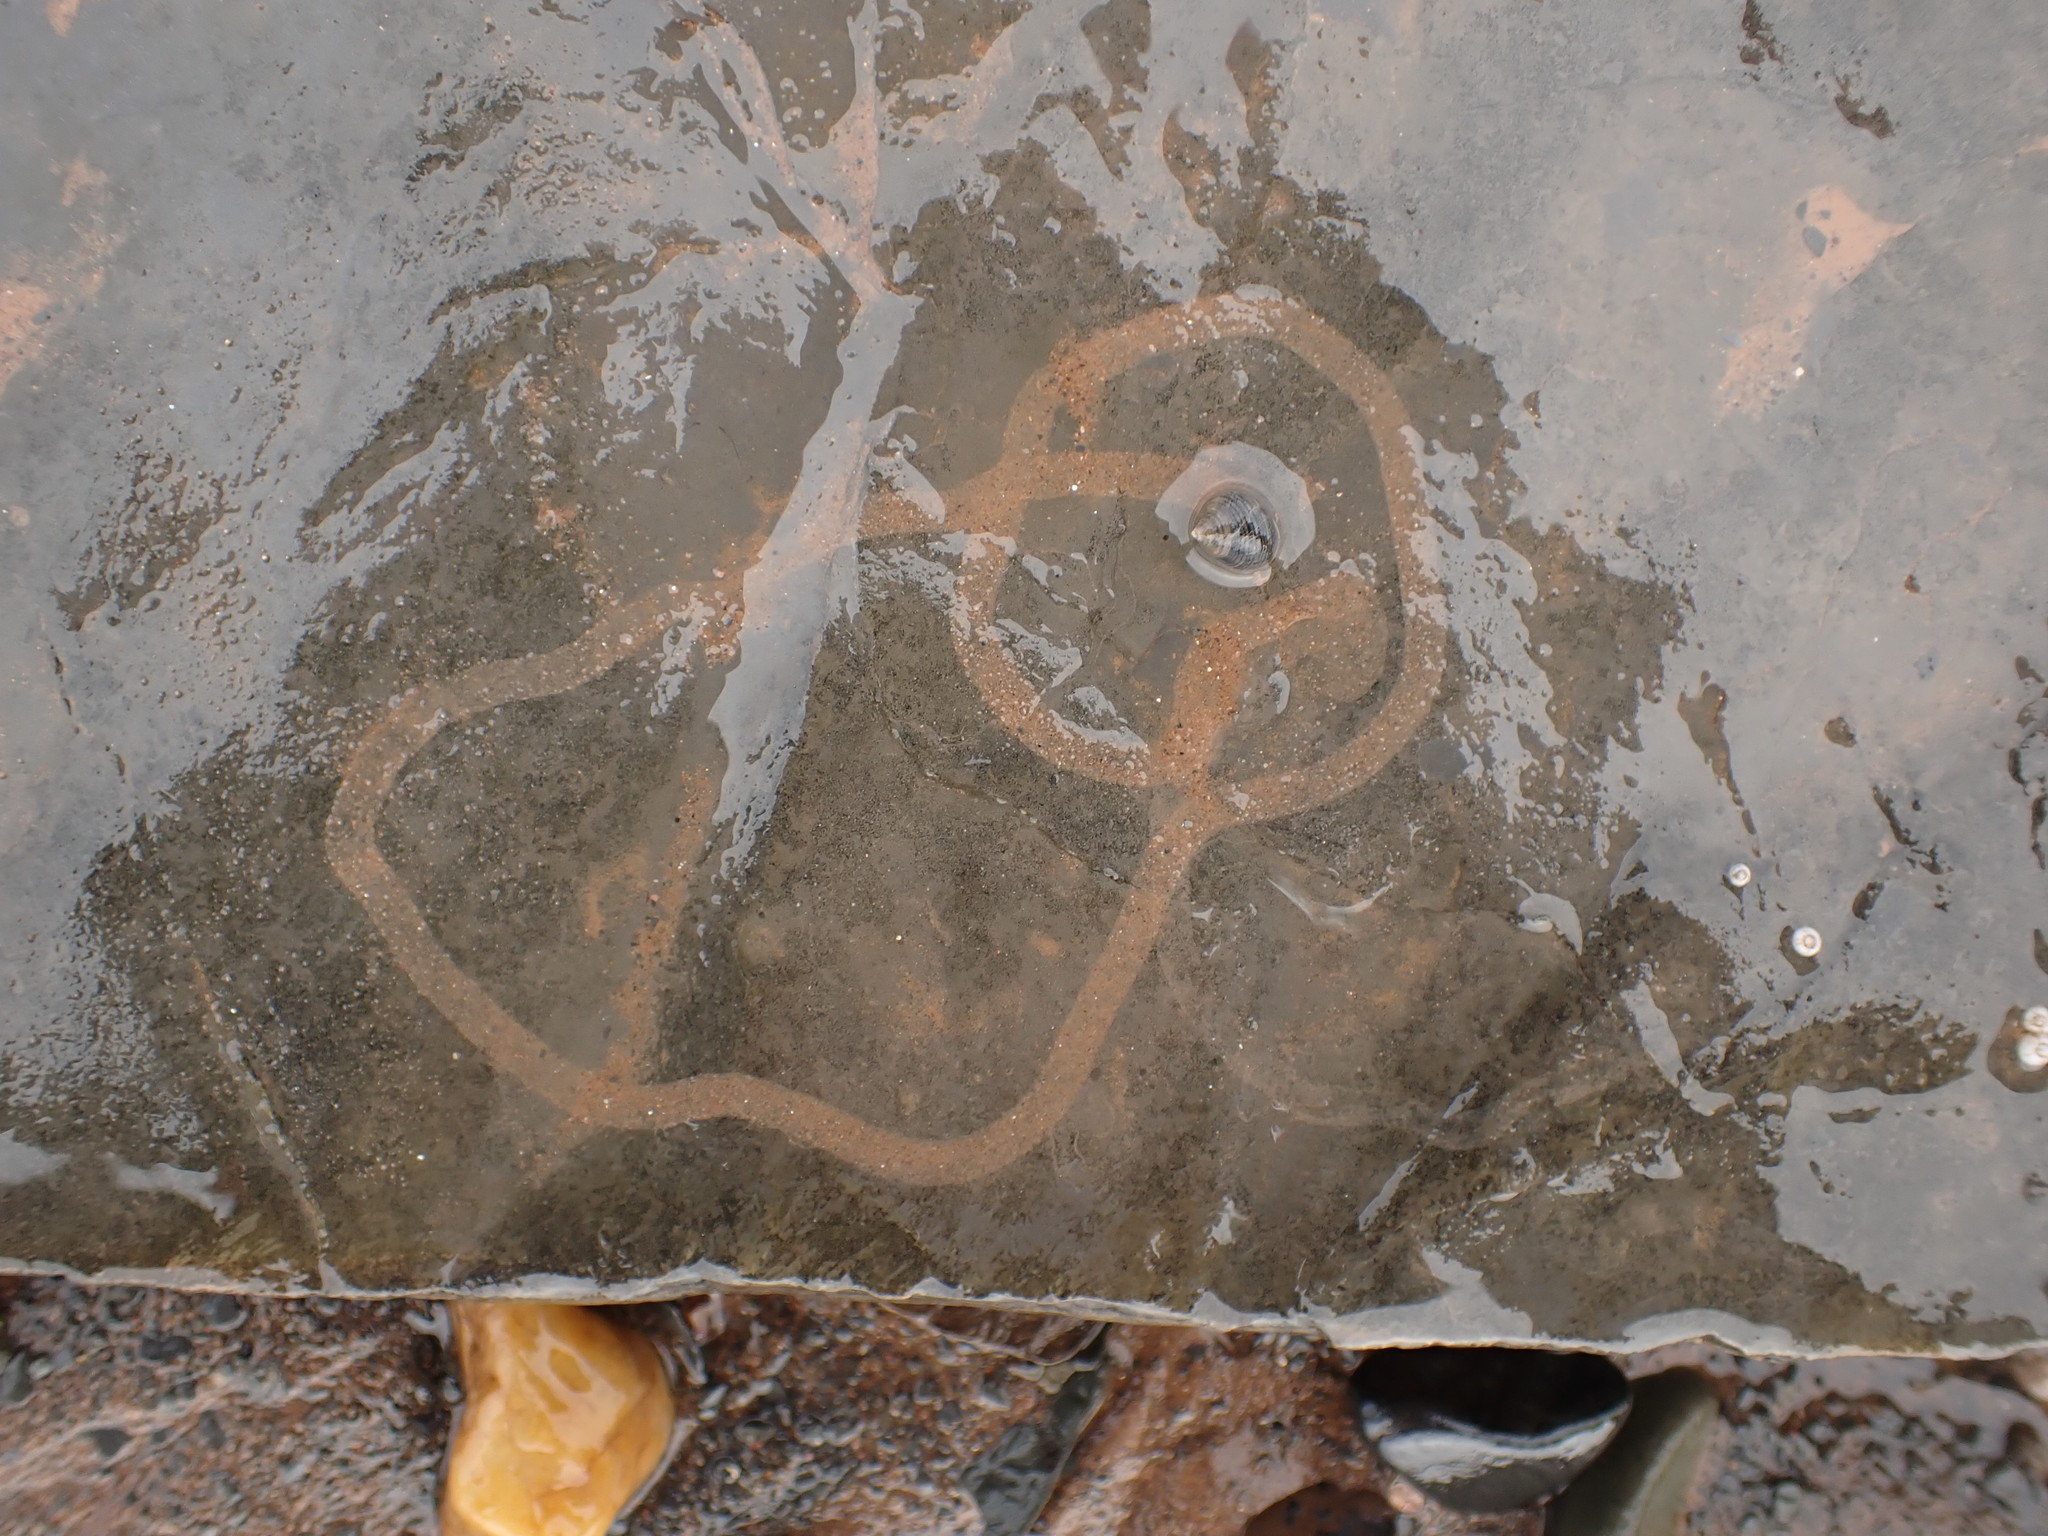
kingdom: Animalia
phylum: Mollusca
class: Gastropoda
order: Littorinimorpha
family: Littorinidae
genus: Littorina
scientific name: Littorina littorea
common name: Common periwinkle
